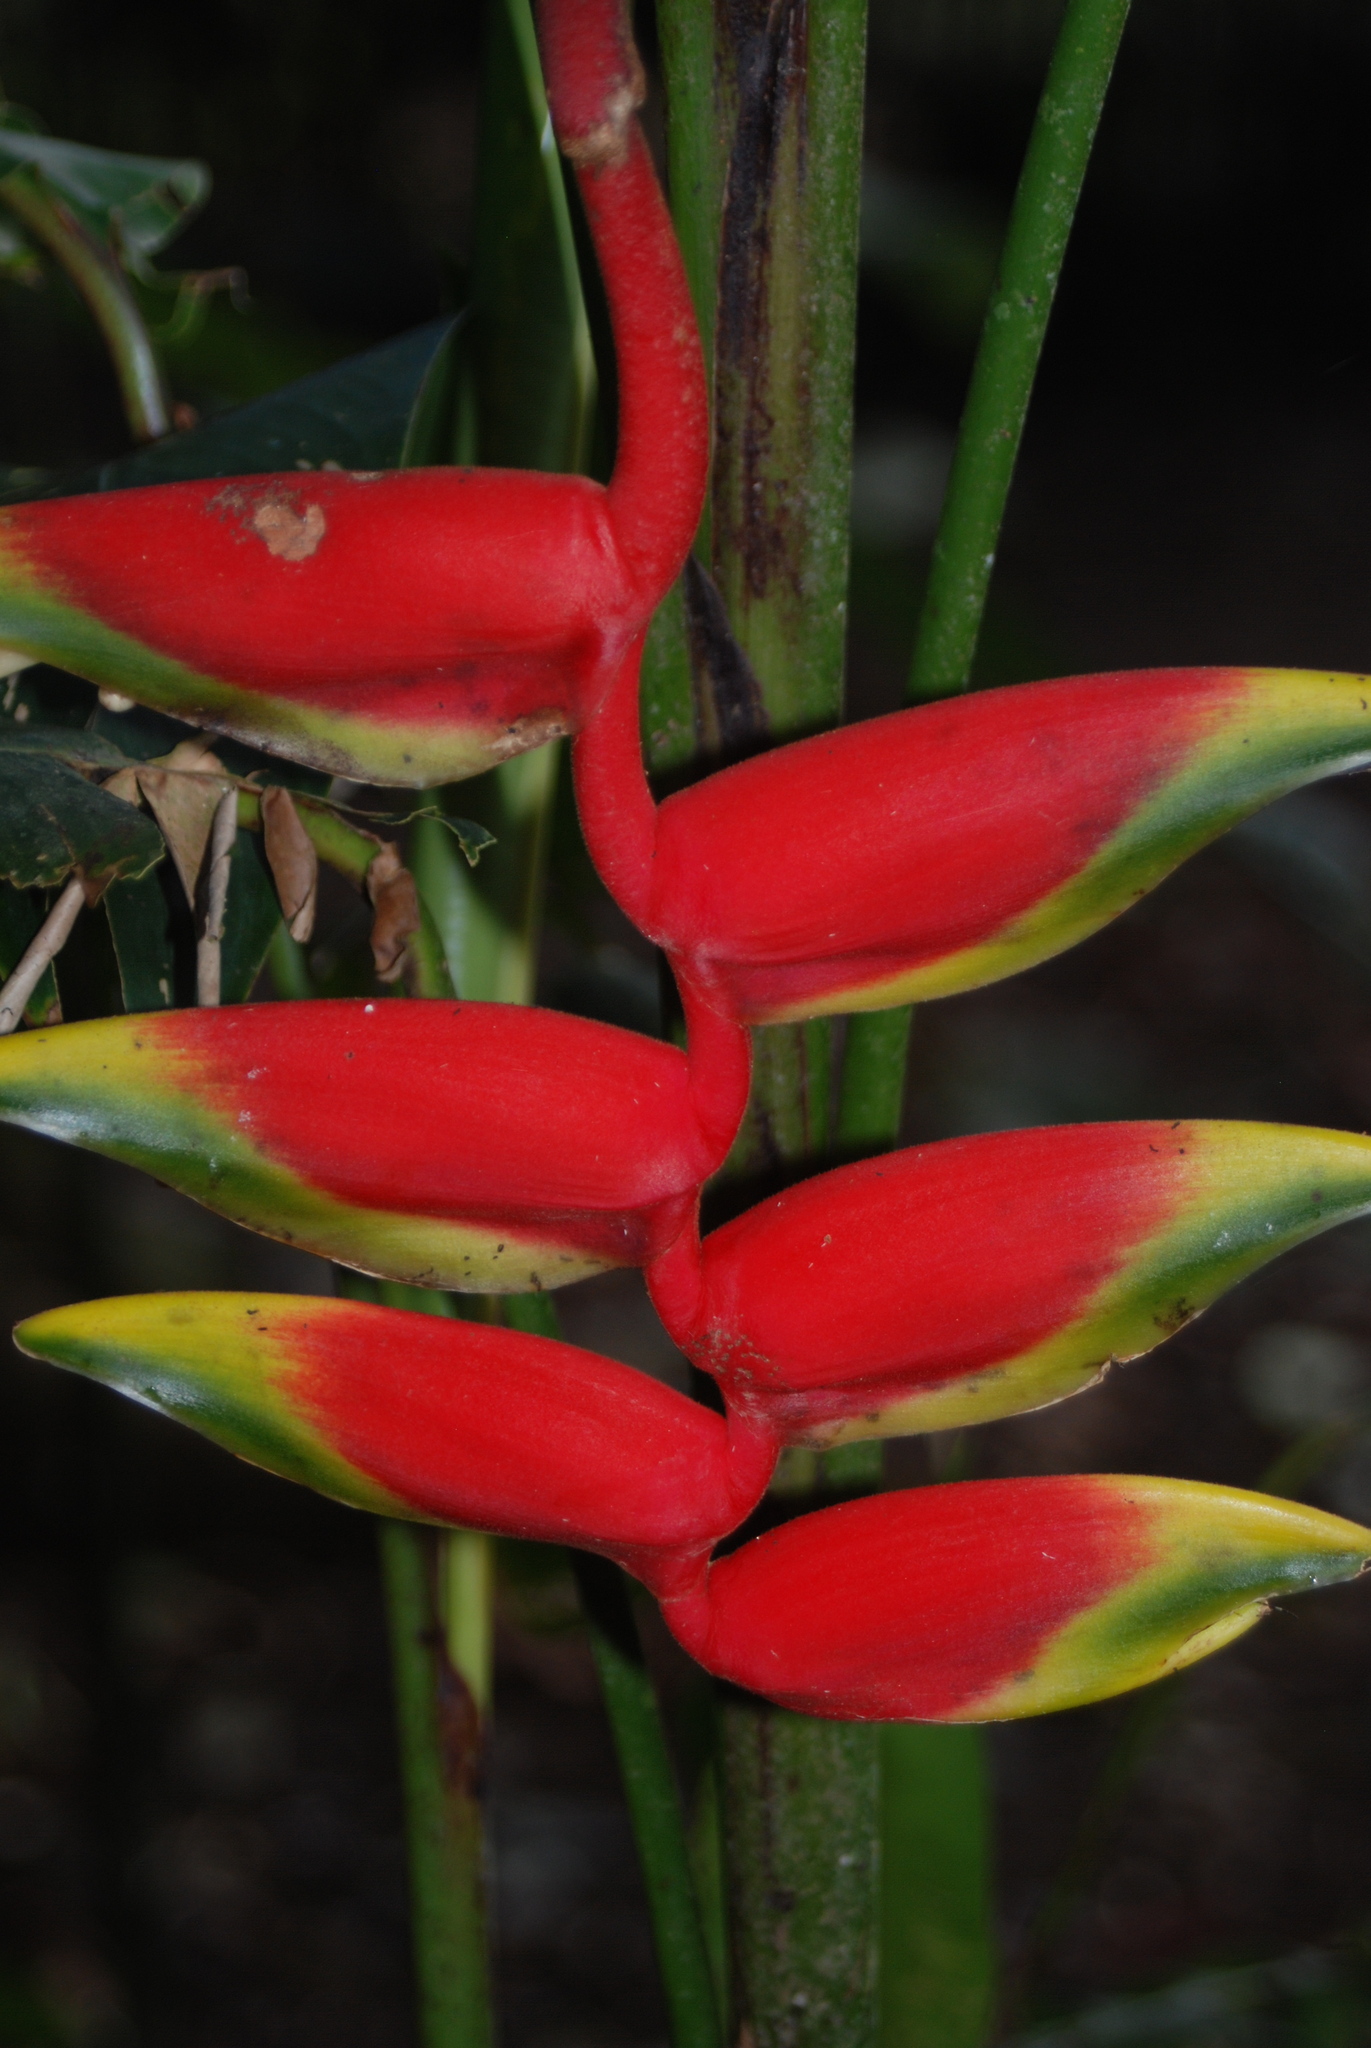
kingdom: Plantae
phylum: Tracheophyta
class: Liliopsida
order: Zingiberales
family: Heliconiaceae
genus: Heliconia
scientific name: Heliconia rostrata
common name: False bird of paradise
